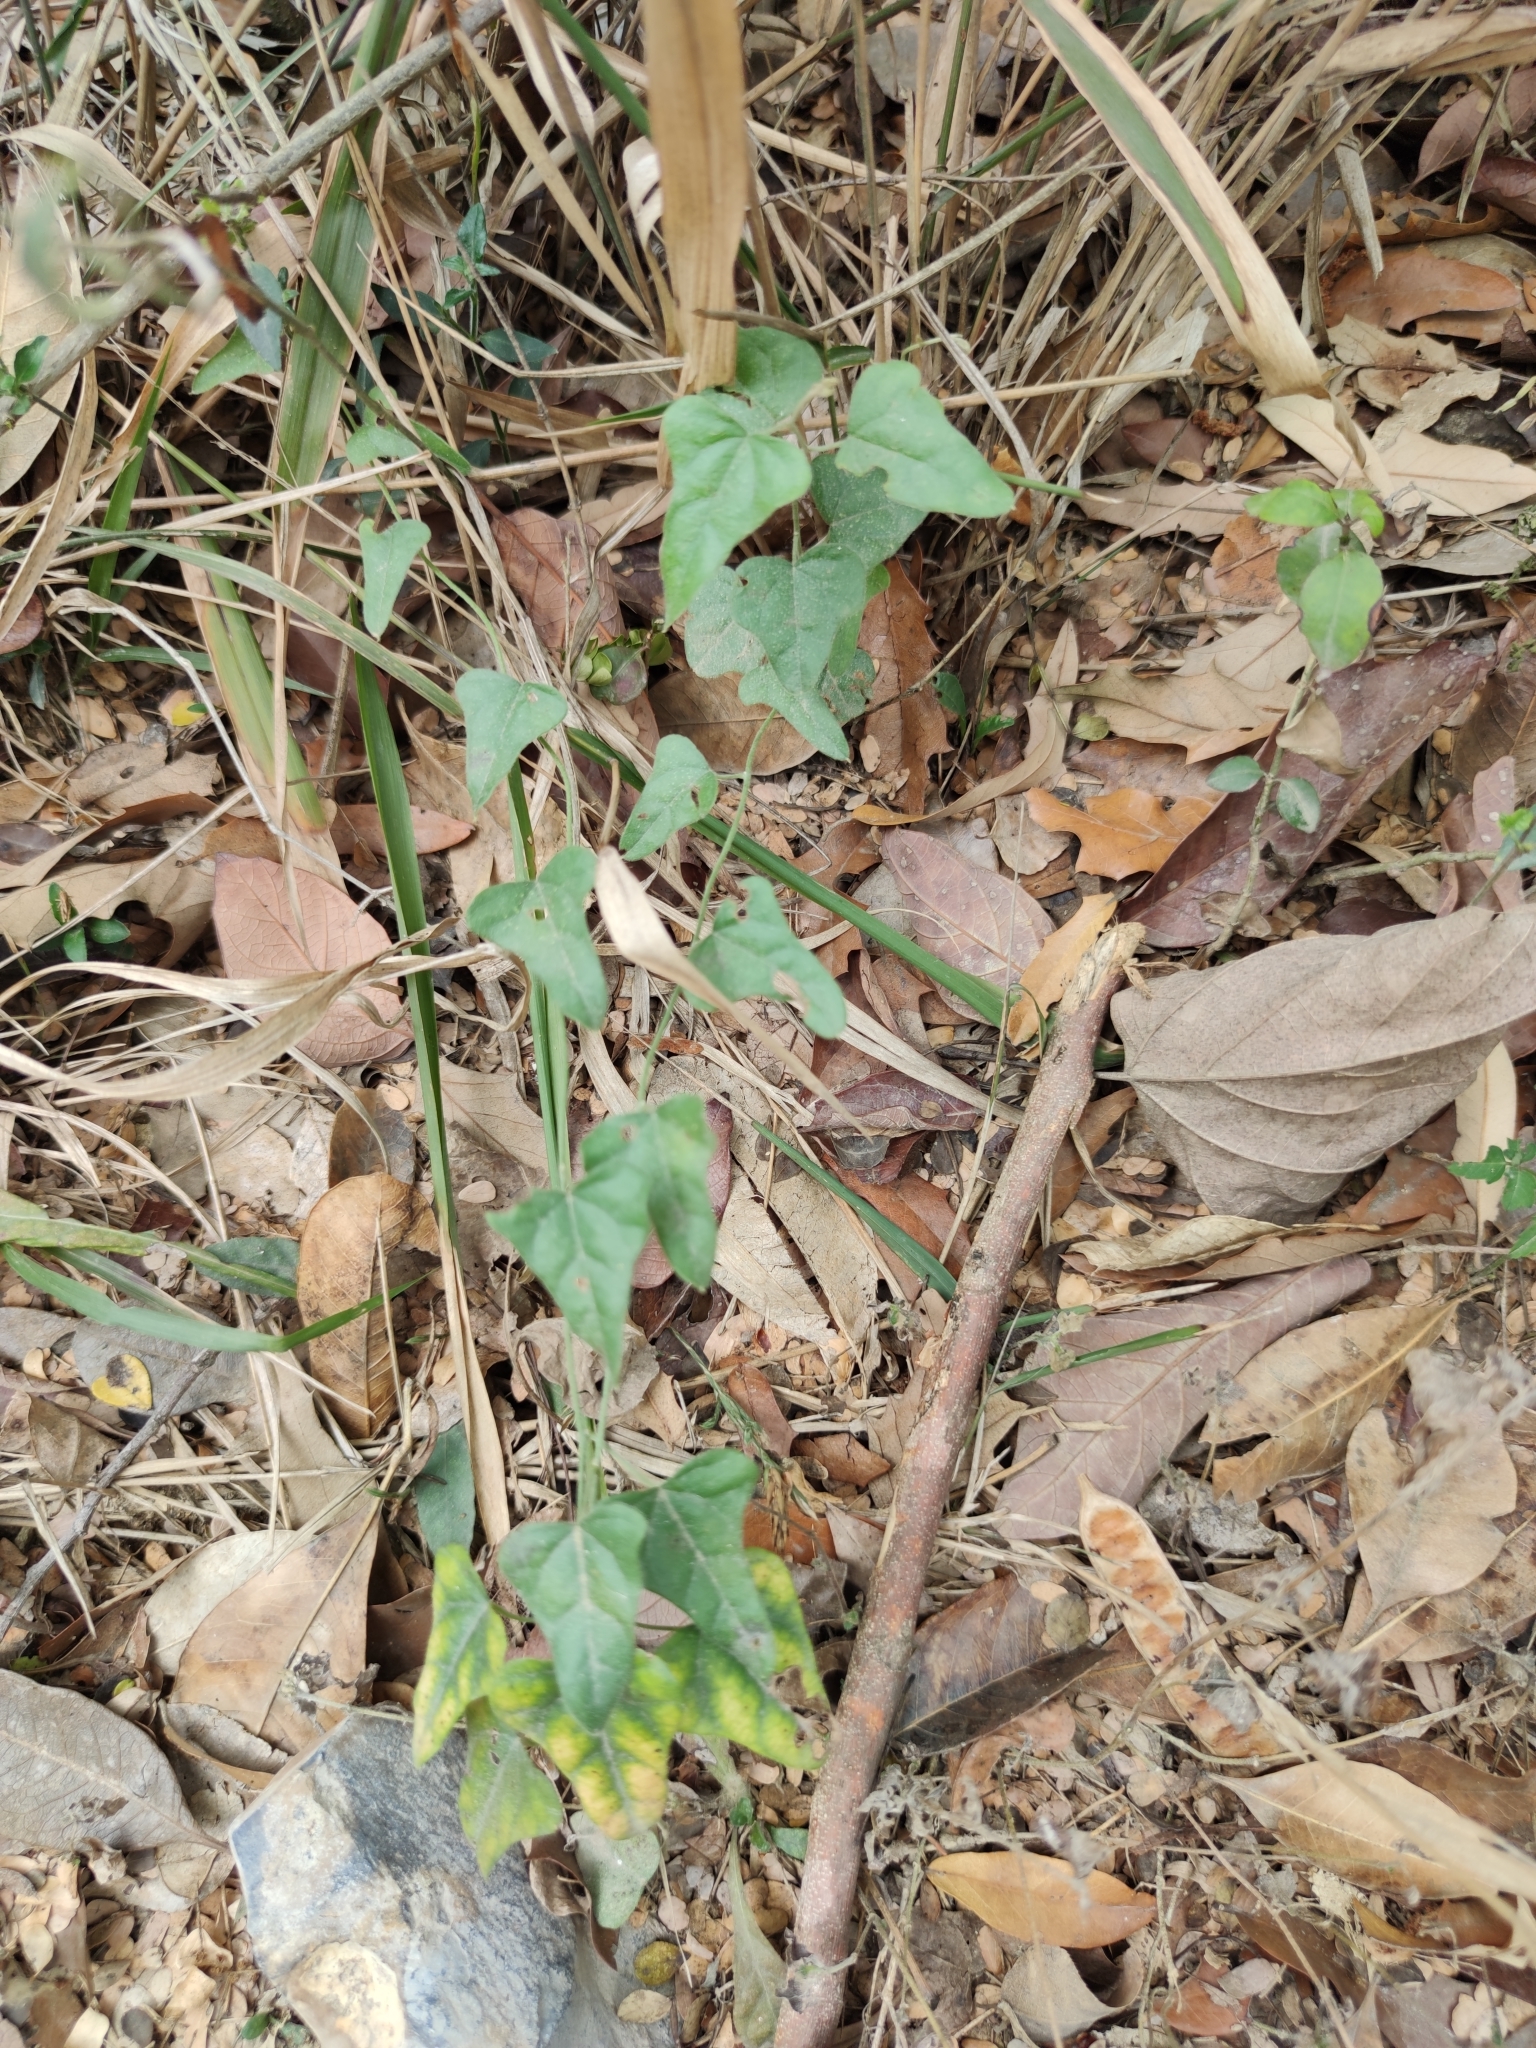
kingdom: Plantae
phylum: Tracheophyta
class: Magnoliopsida
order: Ranunculales
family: Menispermaceae
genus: Cocculus
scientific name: Cocculus diversifolius
